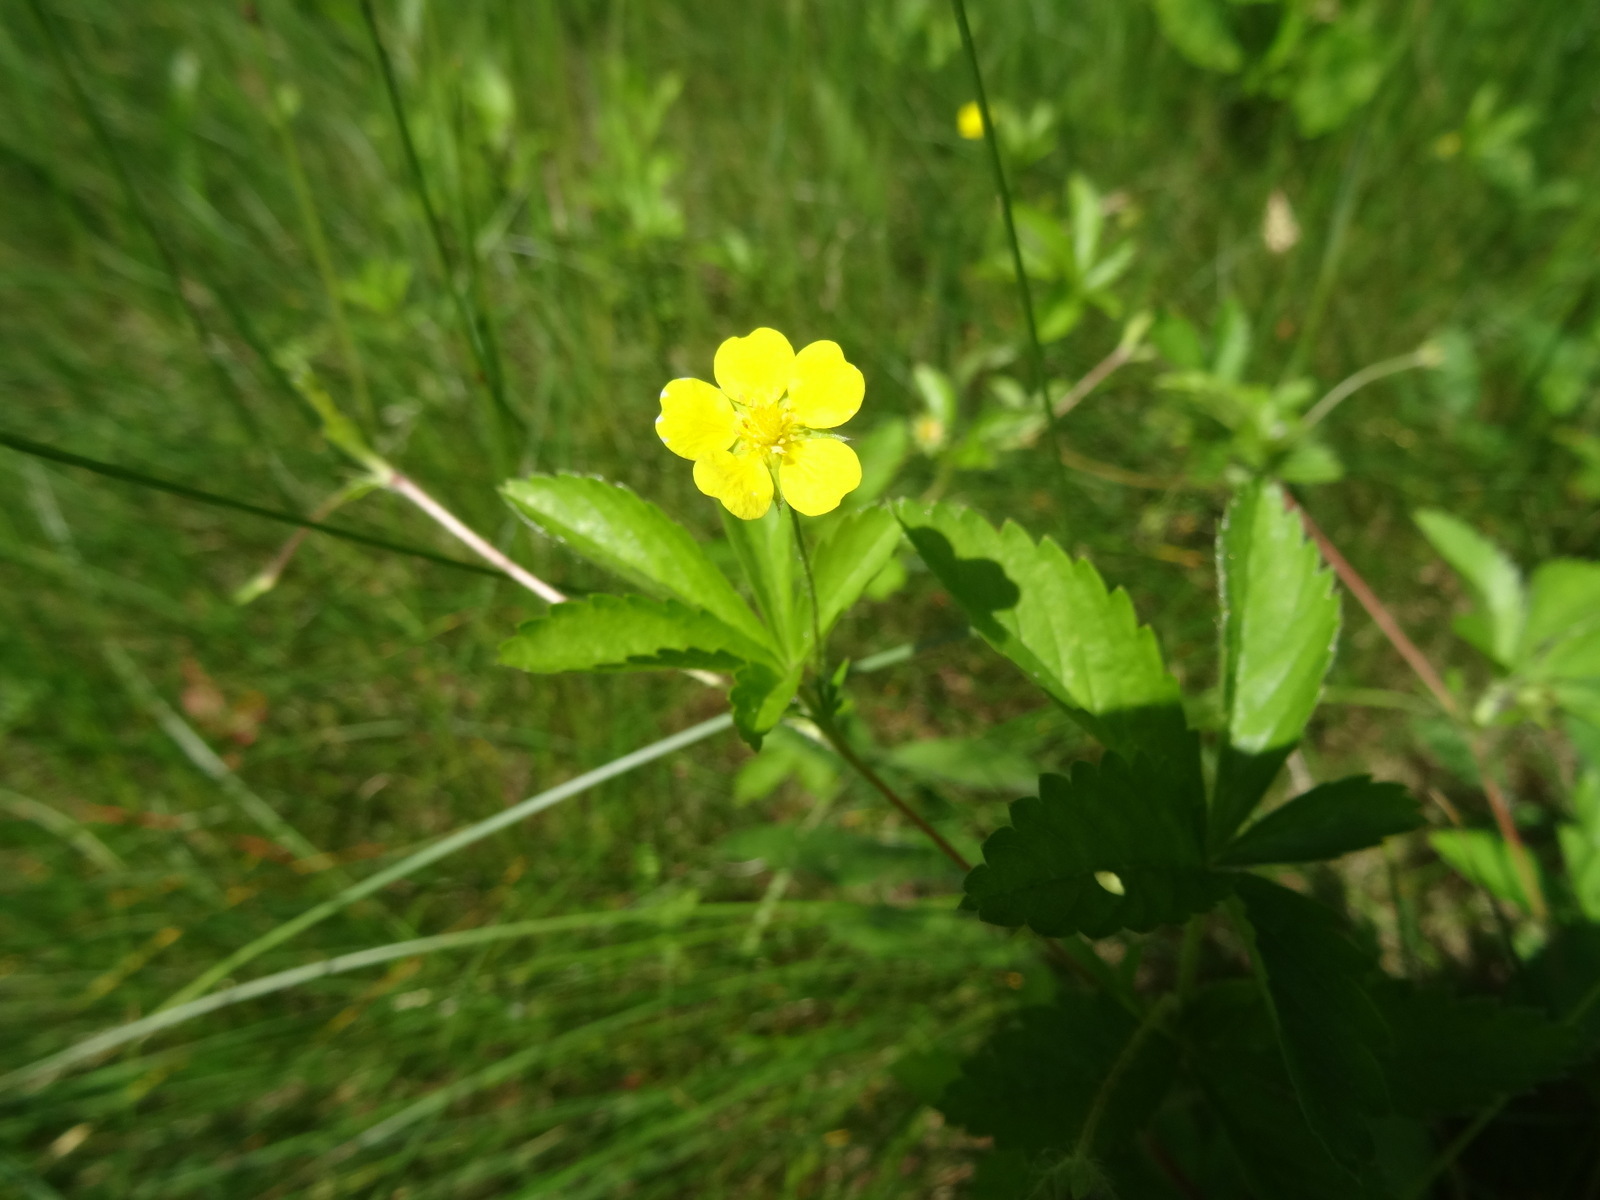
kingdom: Plantae
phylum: Tracheophyta
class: Magnoliopsida
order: Rosales
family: Rosaceae
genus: Potentilla
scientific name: Potentilla simplex
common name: Old field cinquefoil
